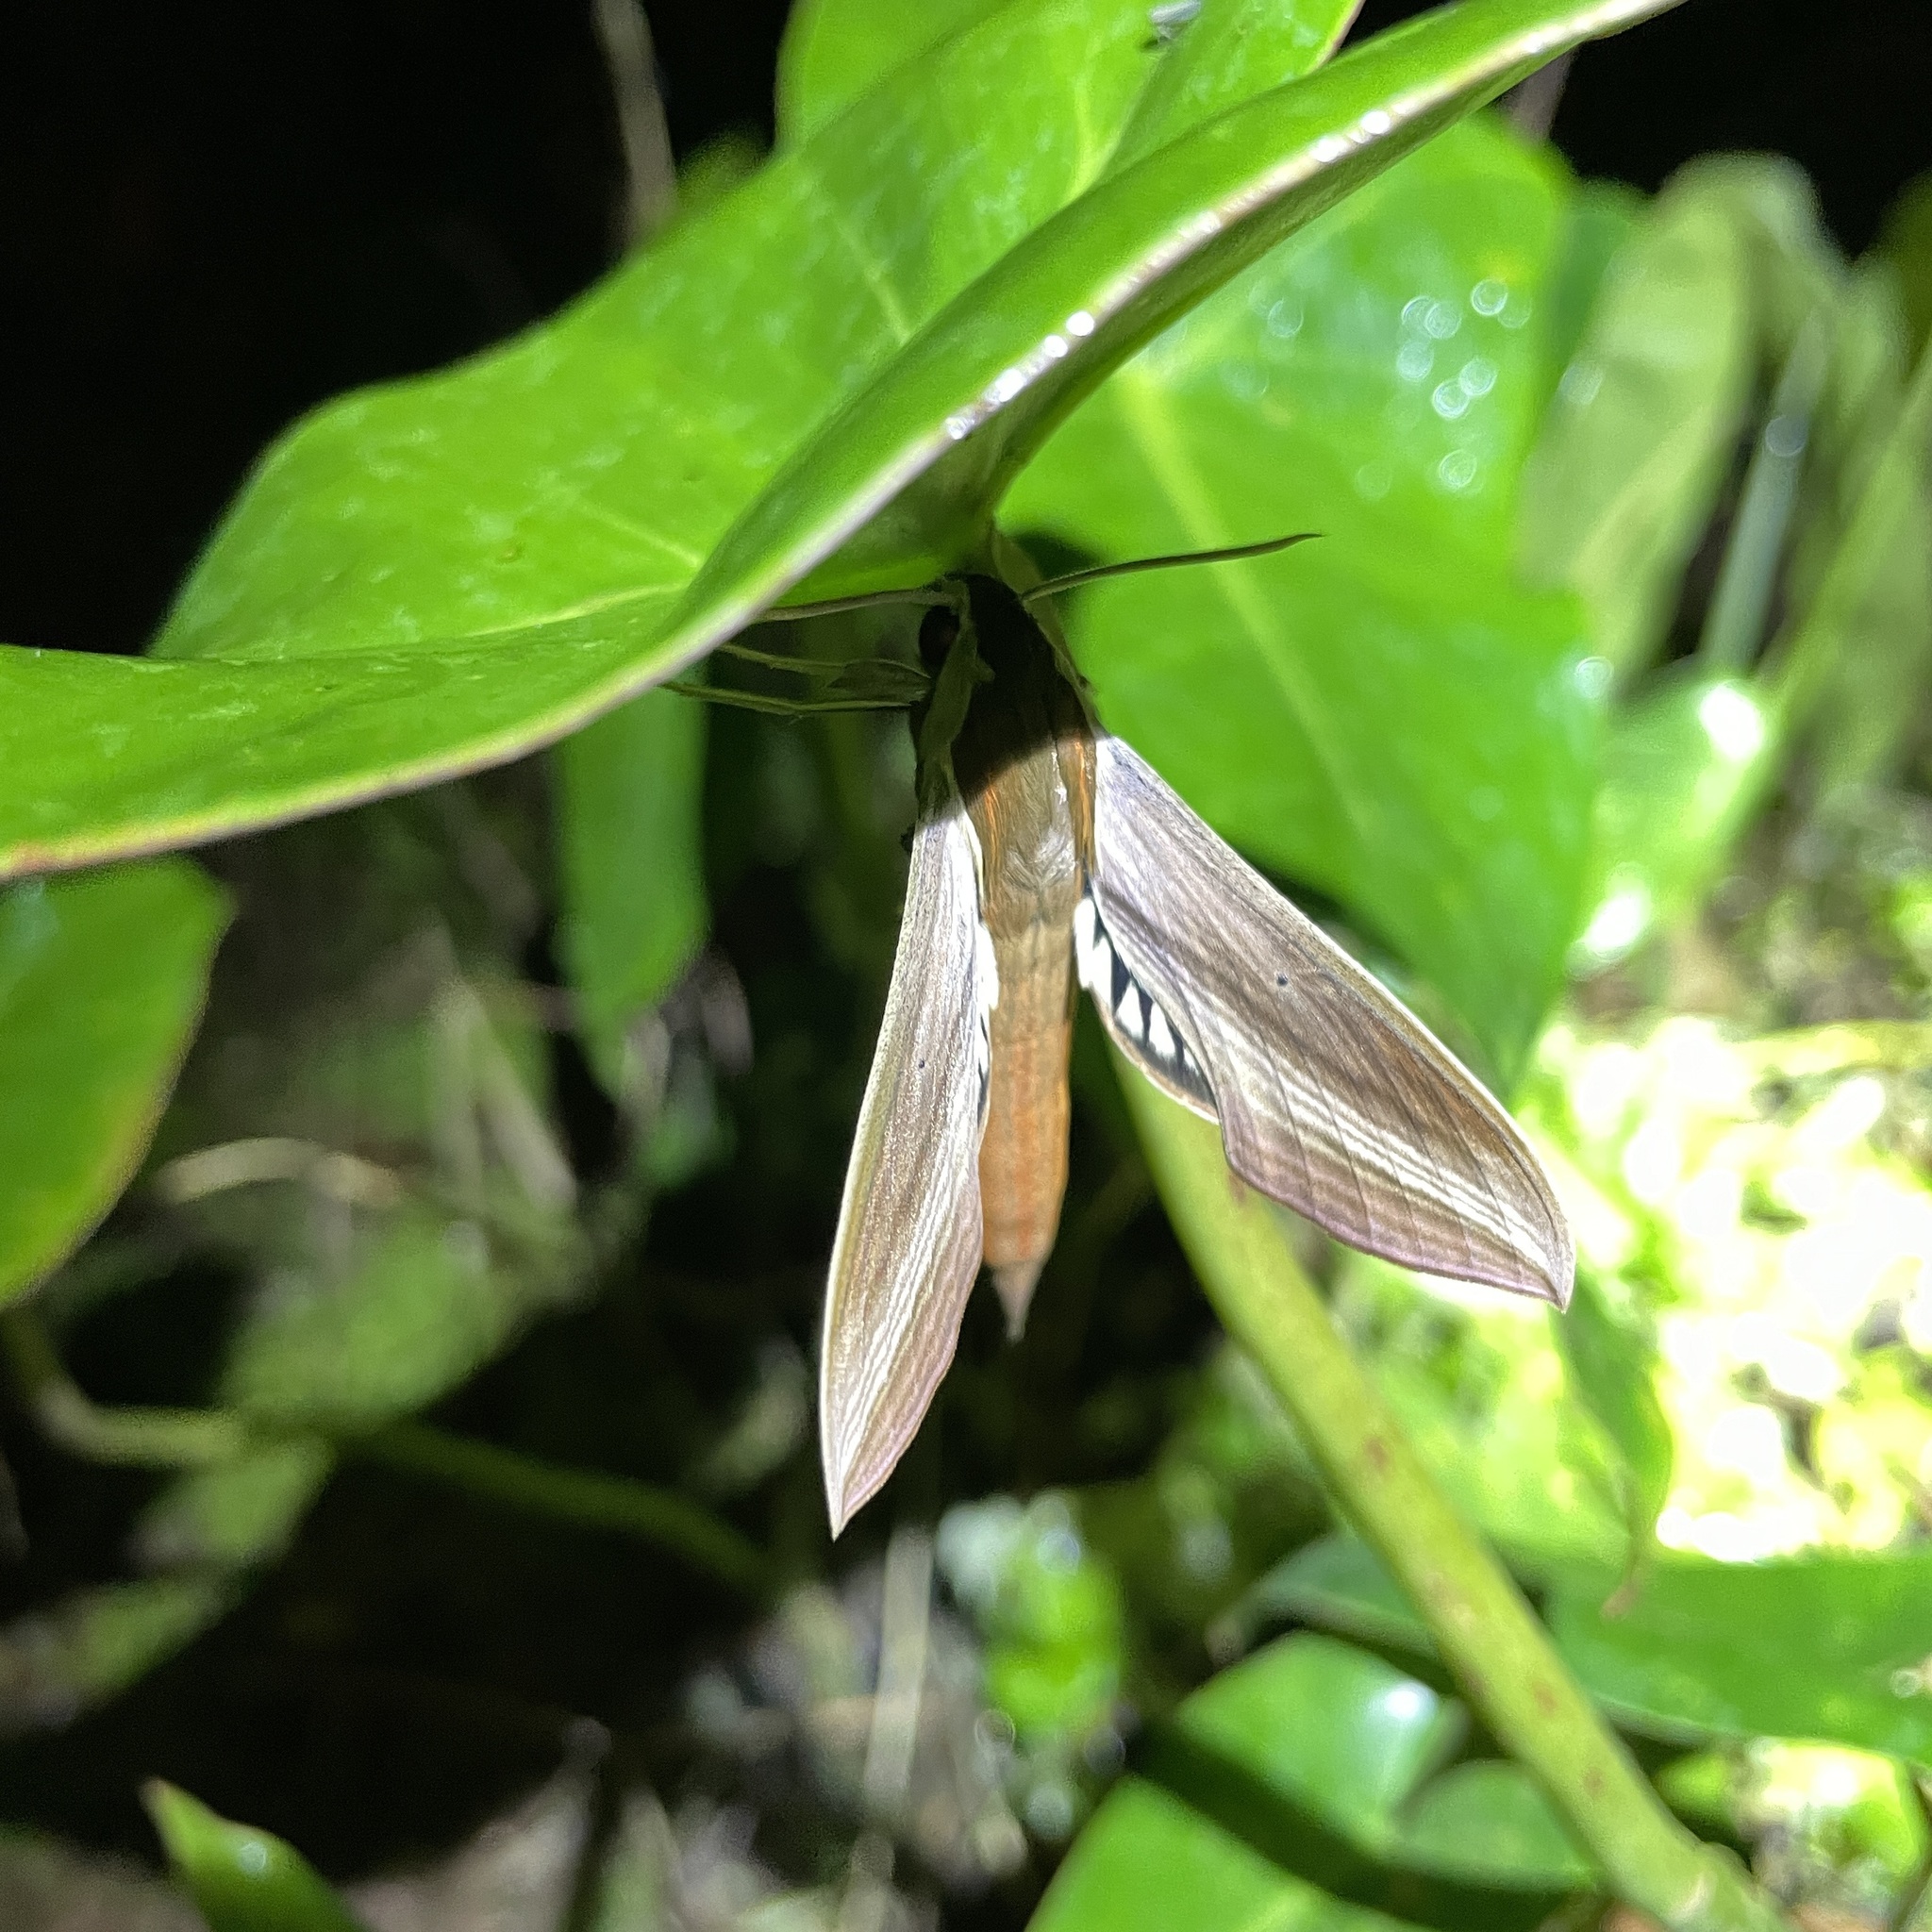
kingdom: Animalia
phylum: Arthropoda
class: Insecta
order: Lepidoptera
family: Sphingidae
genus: Xylophanes
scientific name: Xylophanes tersa
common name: Tersa sphinx
